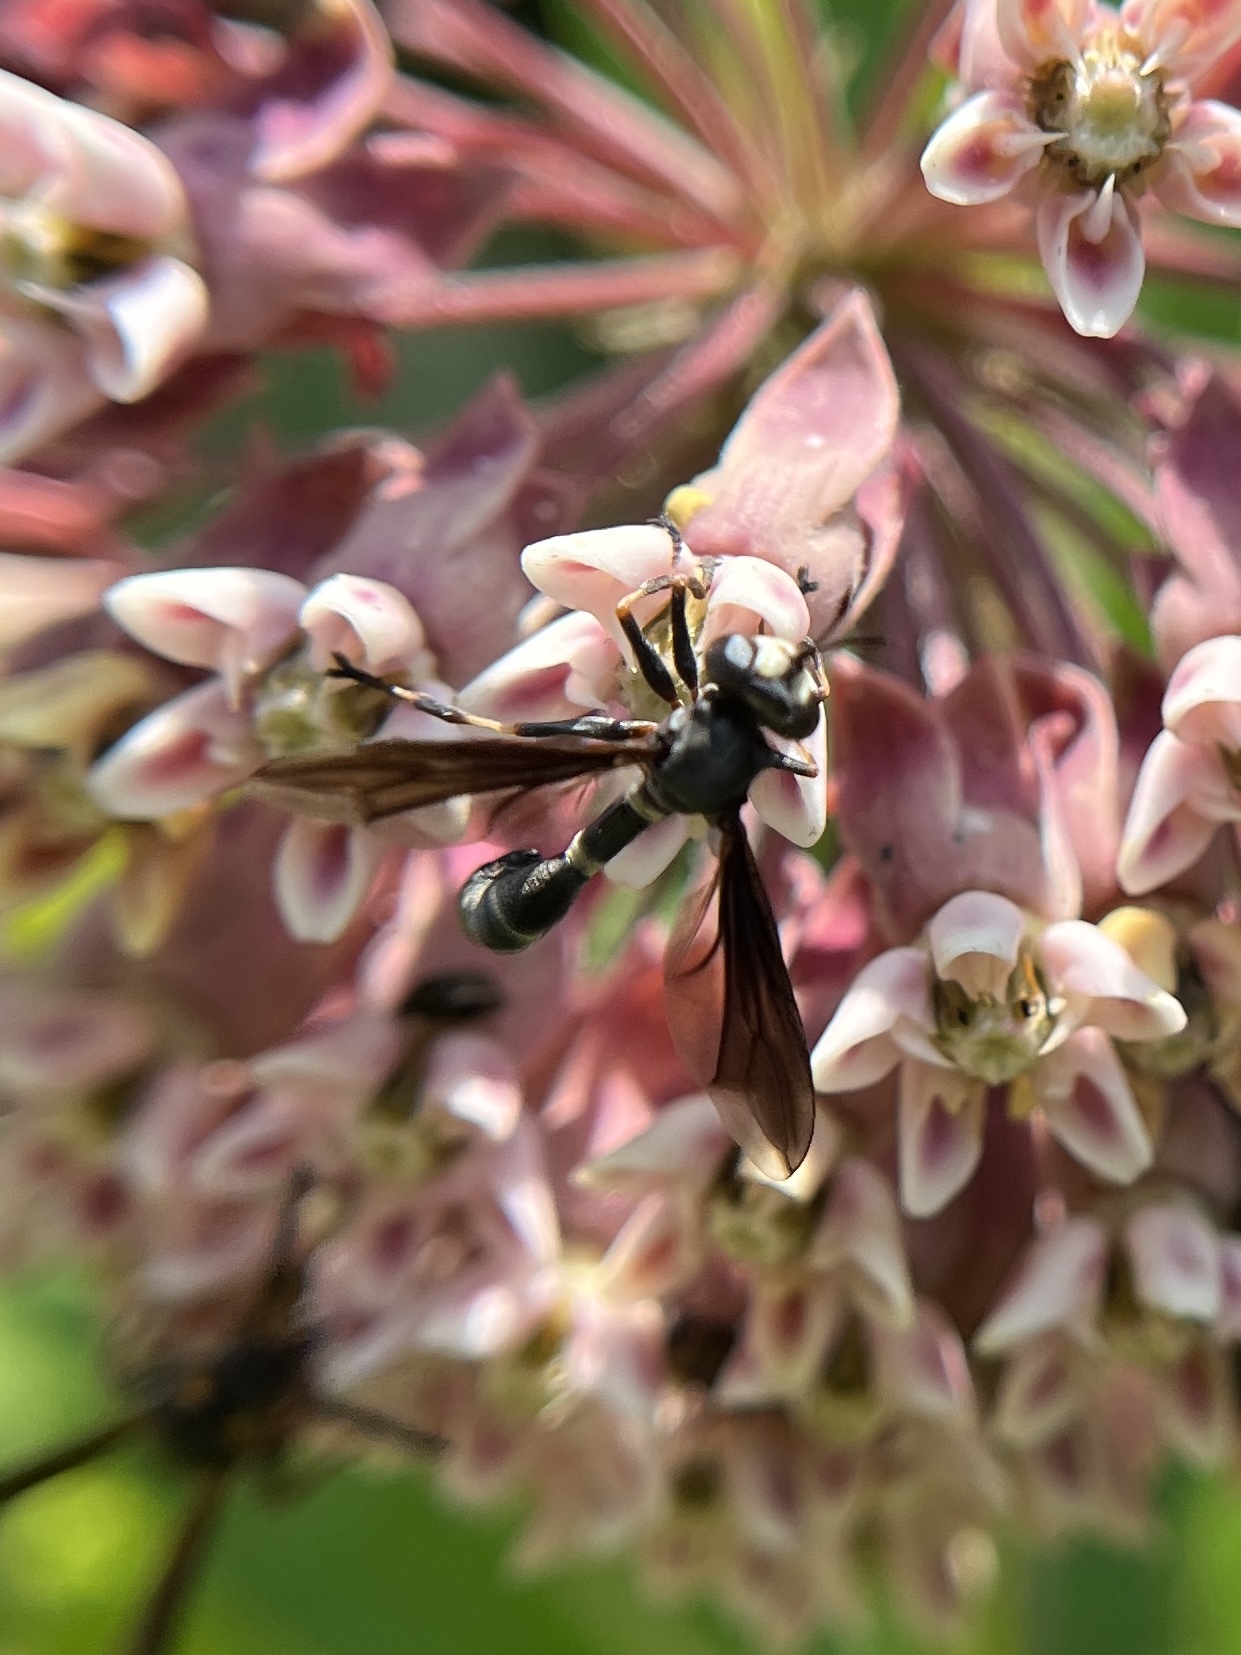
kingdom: Animalia
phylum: Arthropoda
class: Insecta
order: Diptera
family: Conopidae
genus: Physocephala
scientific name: Physocephala tibialis
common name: Common eastern physocephala
